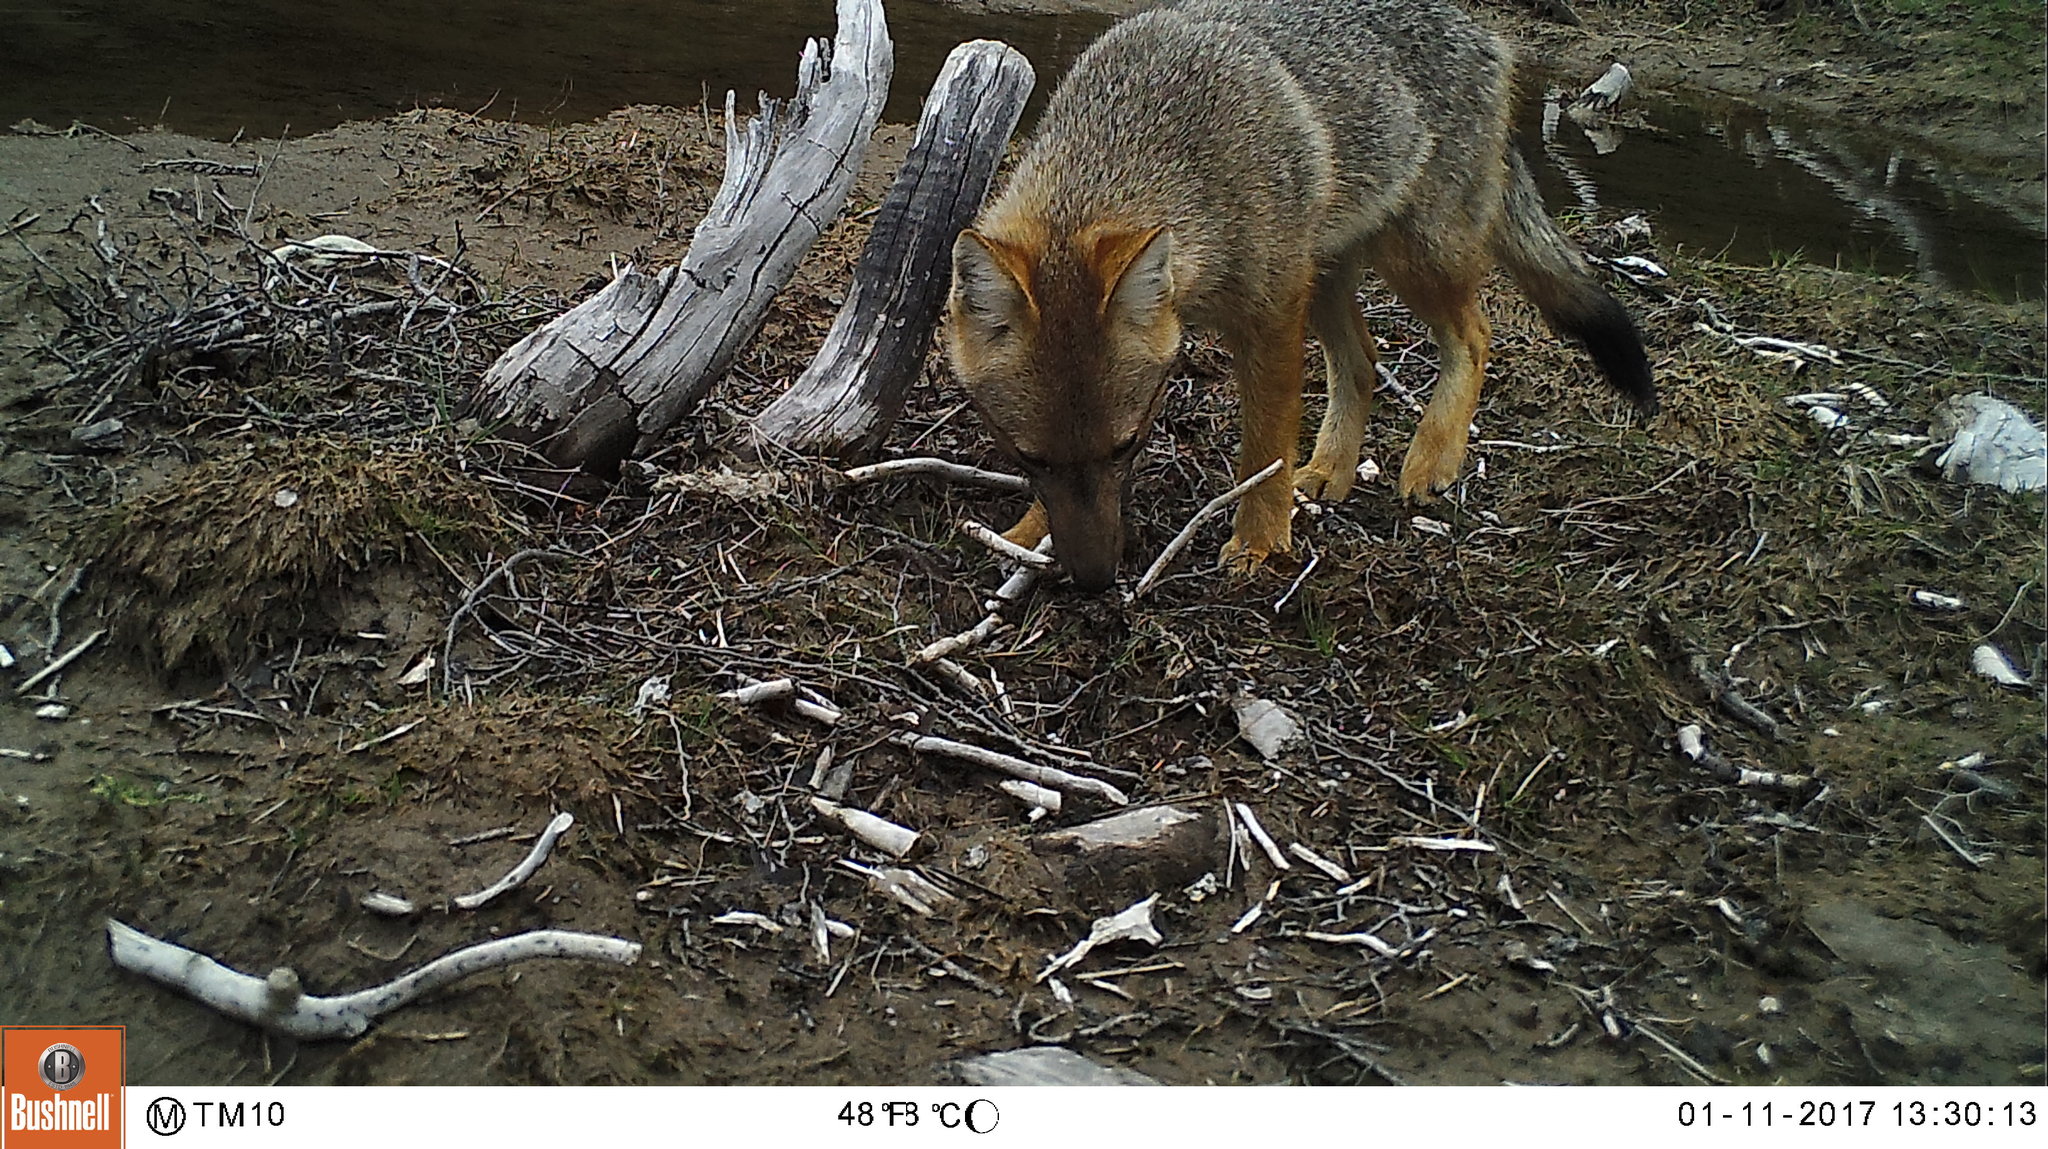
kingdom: Animalia
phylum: Chordata
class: Mammalia
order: Carnivora
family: Canidae
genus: Lycalopex
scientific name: Lycalopex culpaeus
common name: Culpeo
